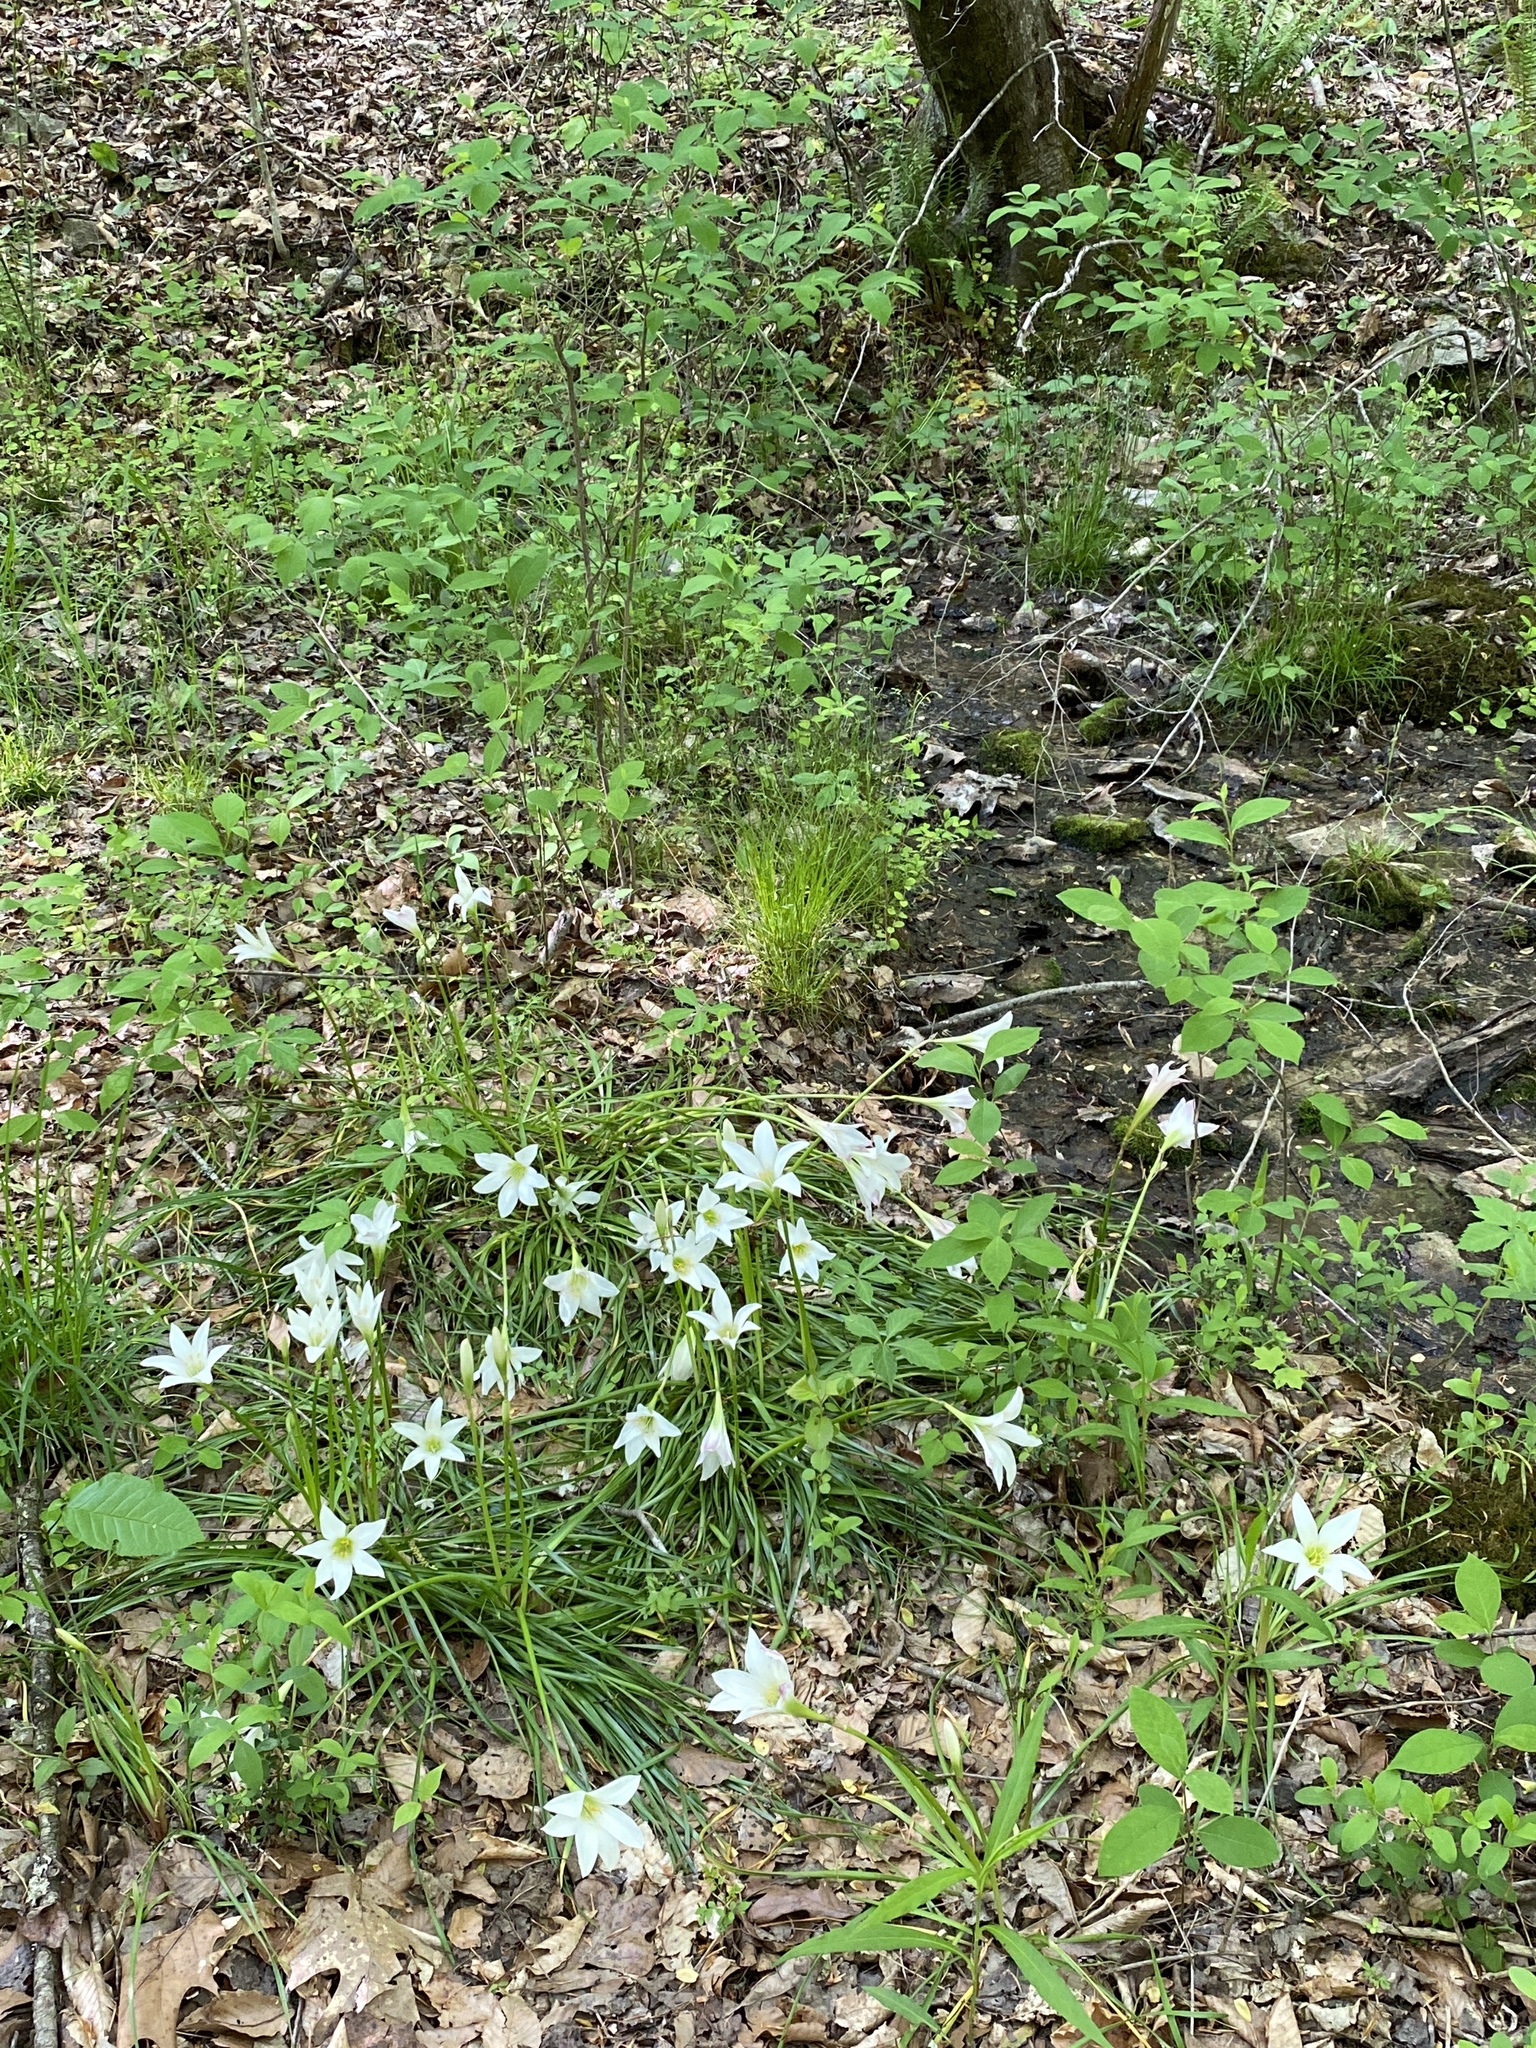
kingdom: Plantae
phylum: Tracheophyta
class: Liliopsida
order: Asparagales
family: Amaryllidaceae
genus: Zephyranthes
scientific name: Zephyranthes atamasco
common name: Atamasco lily
